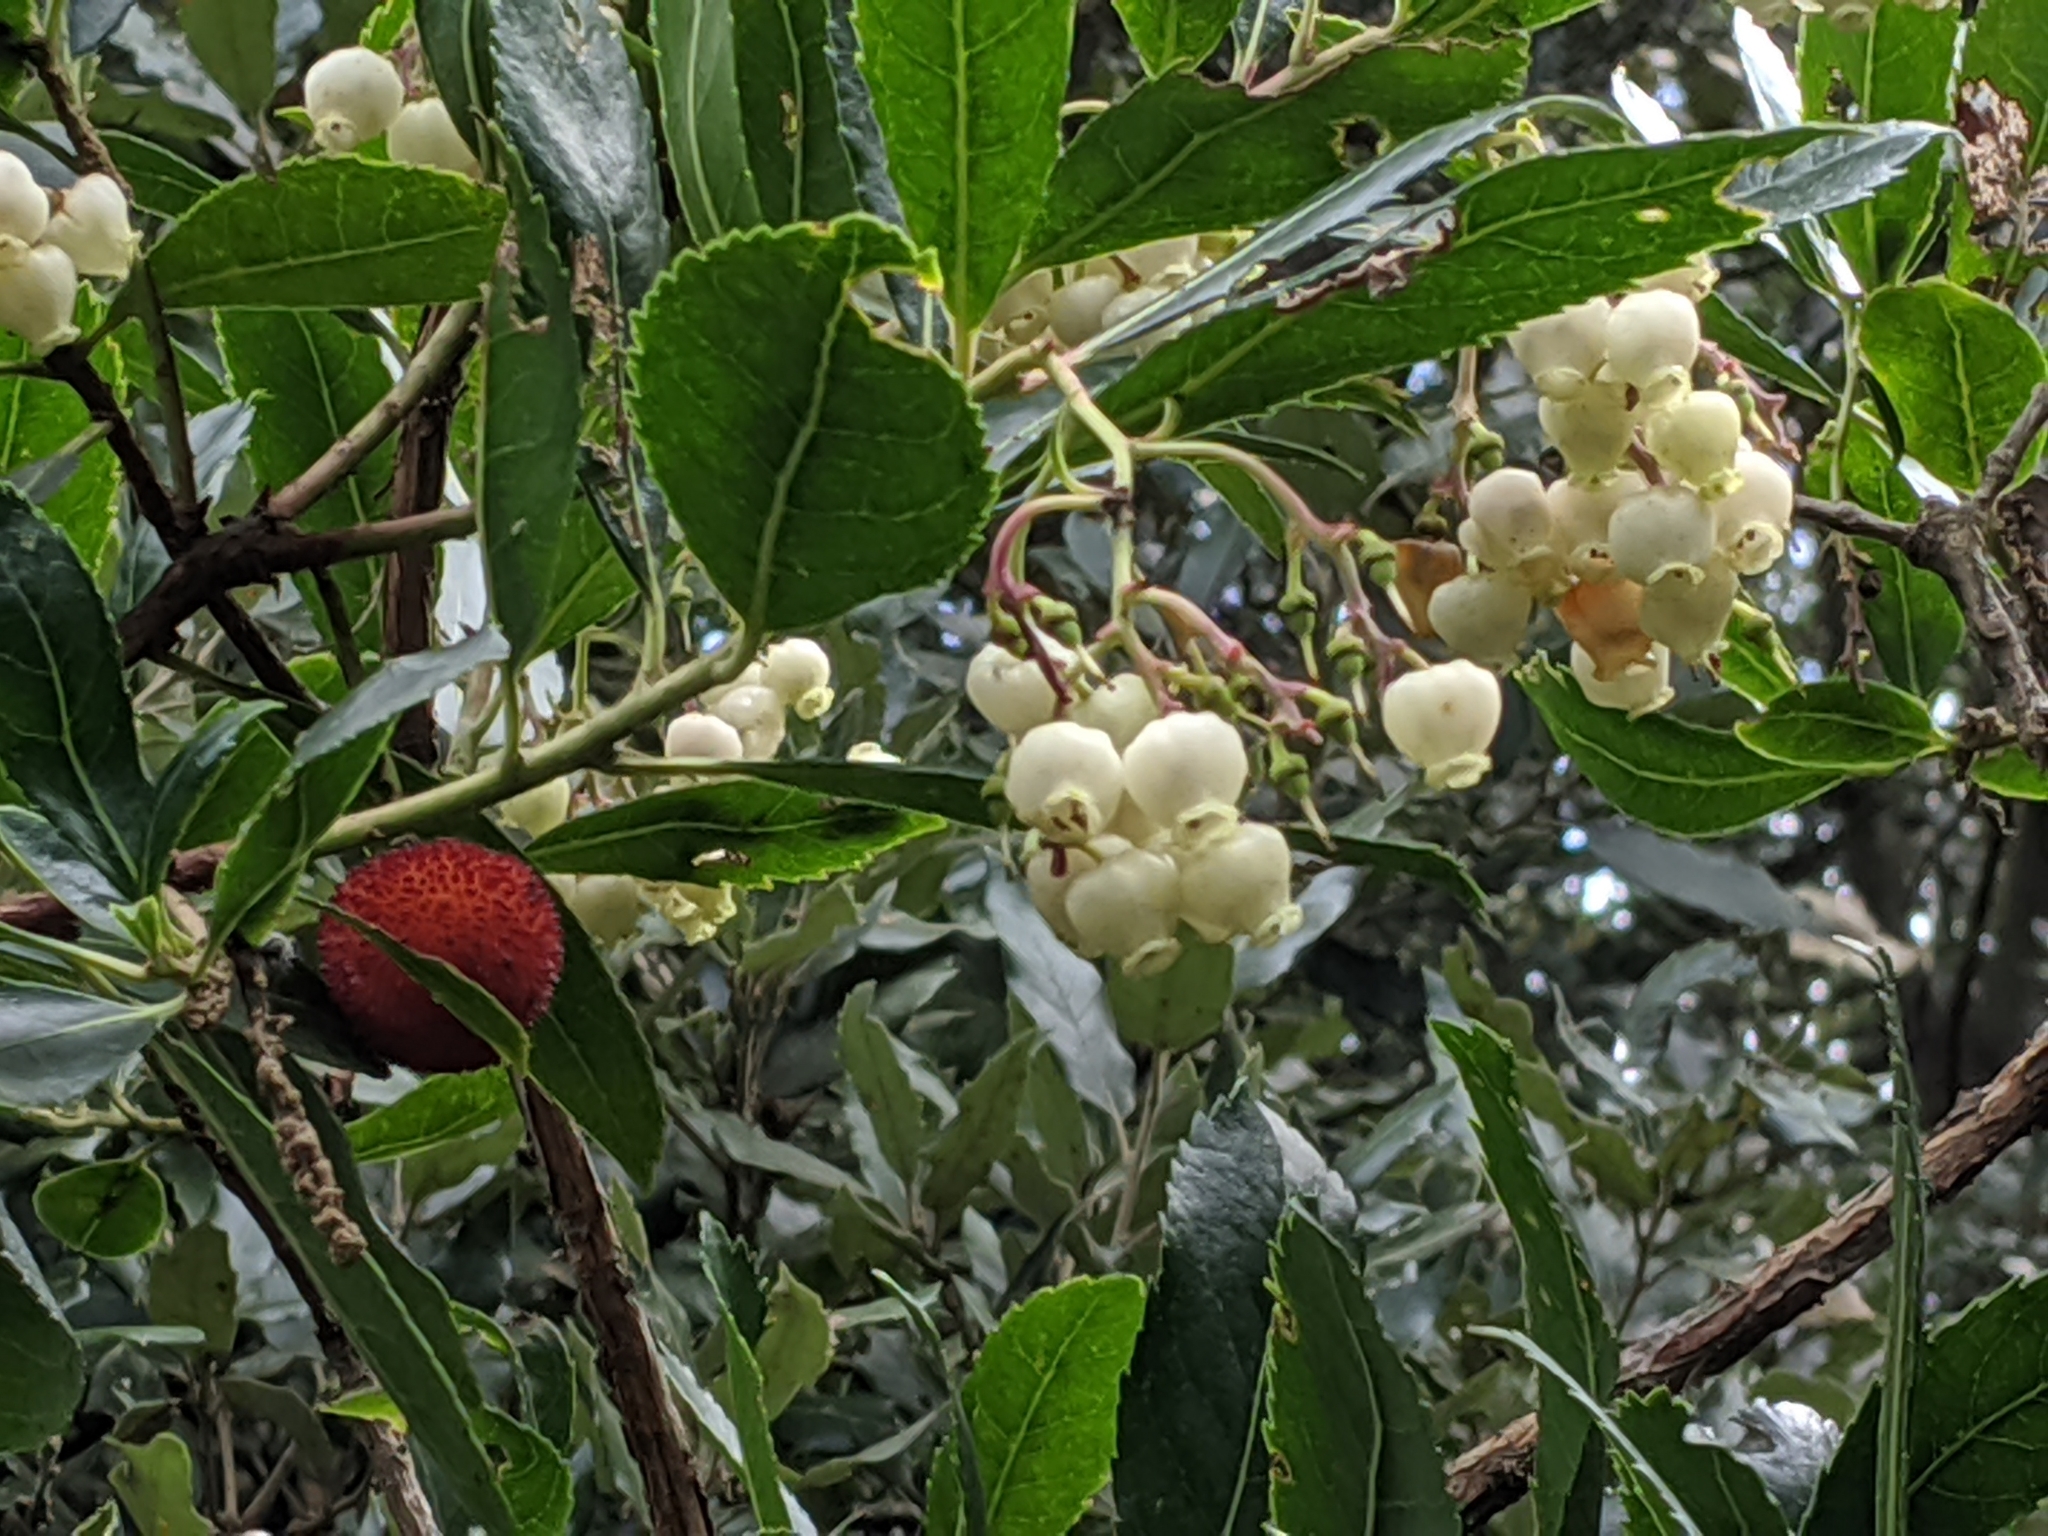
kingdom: Plantae
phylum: Tracheophyta
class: Magnoliopsida
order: Ericales
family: Ericaceae
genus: Arbutus
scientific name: Arbutus unedo
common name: Strawberry-tree
